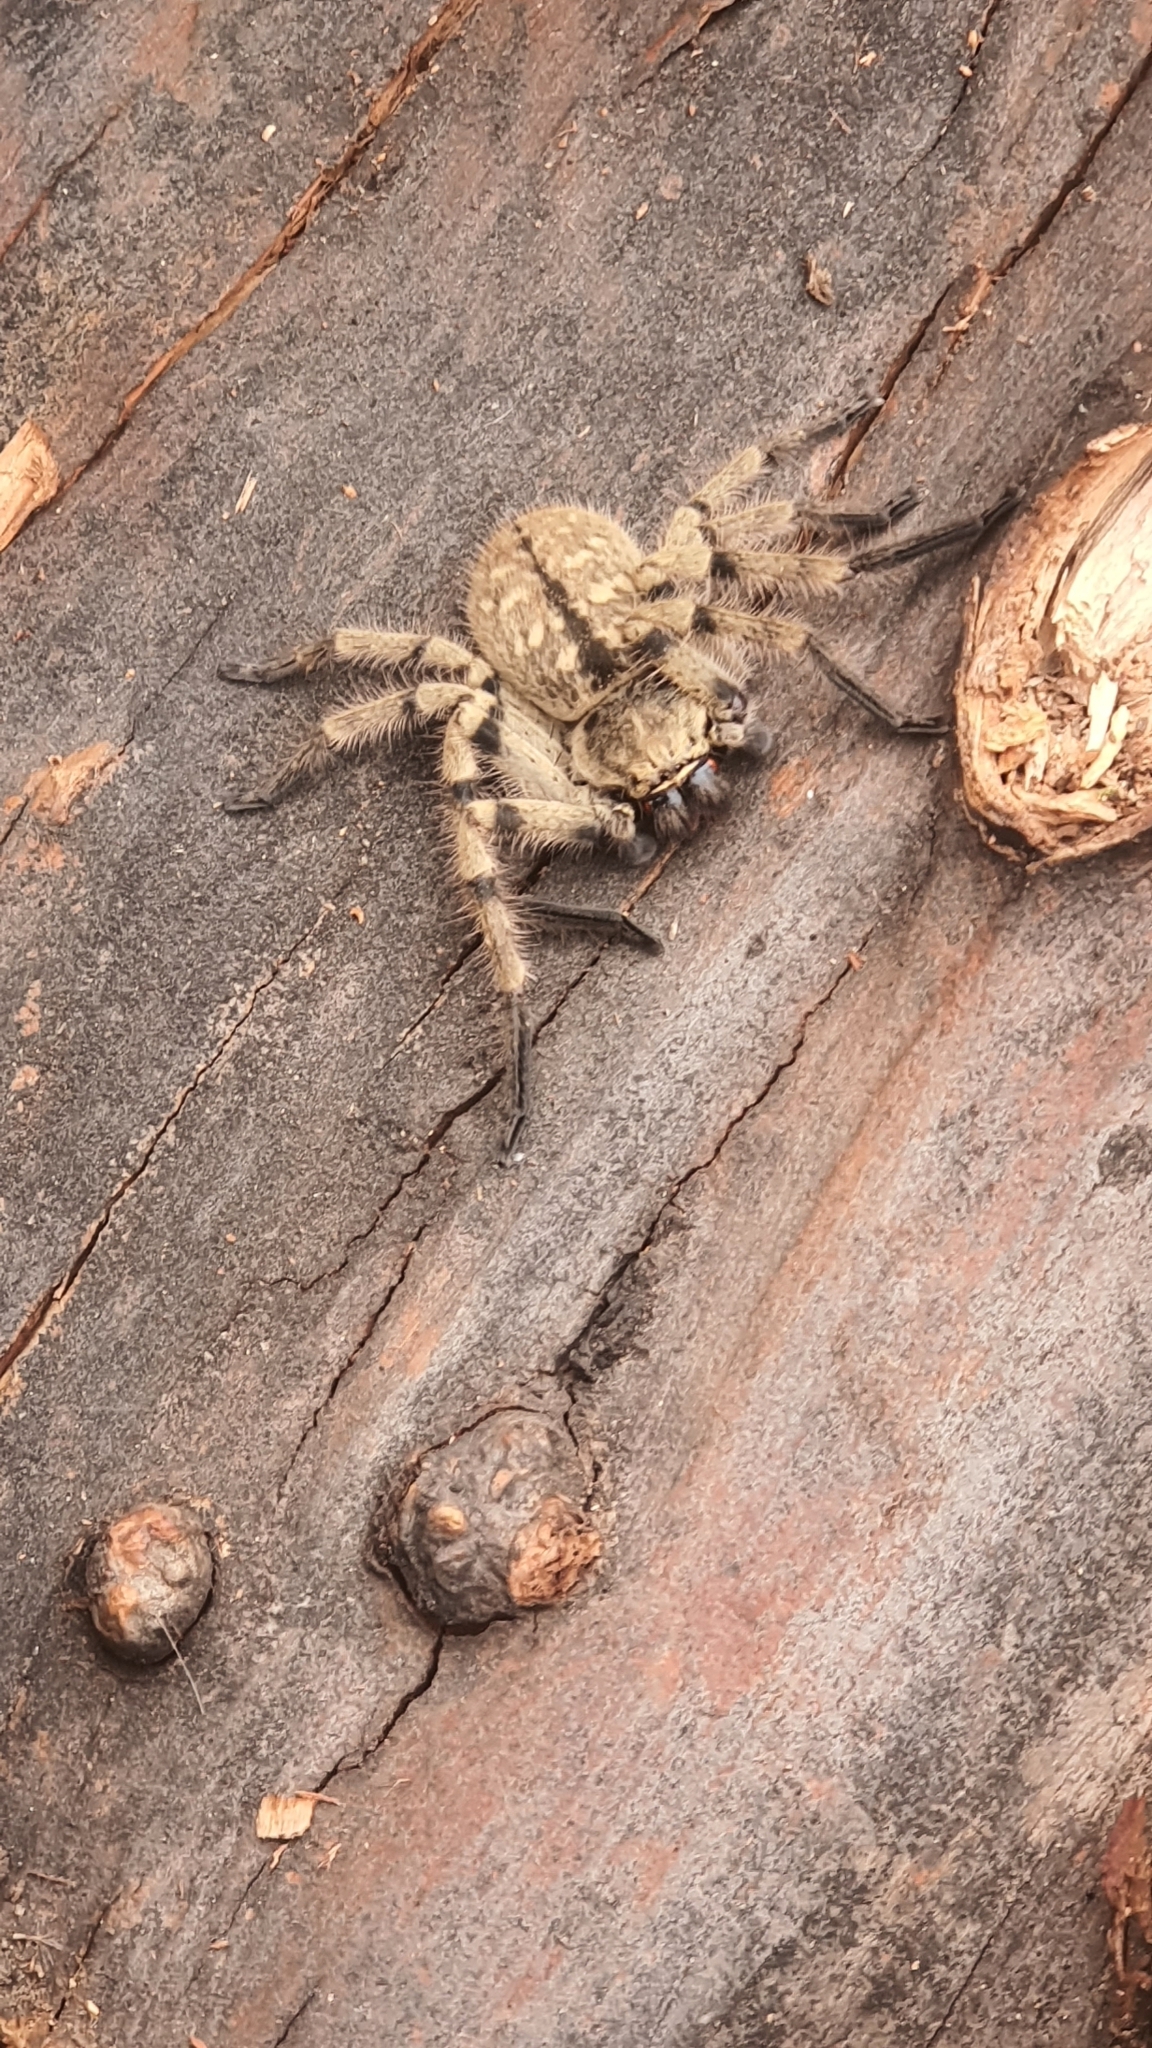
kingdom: Animalia
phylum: Arthropoda
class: Arachnida
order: Araneae
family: Sparassidae
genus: Polybetes
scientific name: Polybetes pythagoricus
